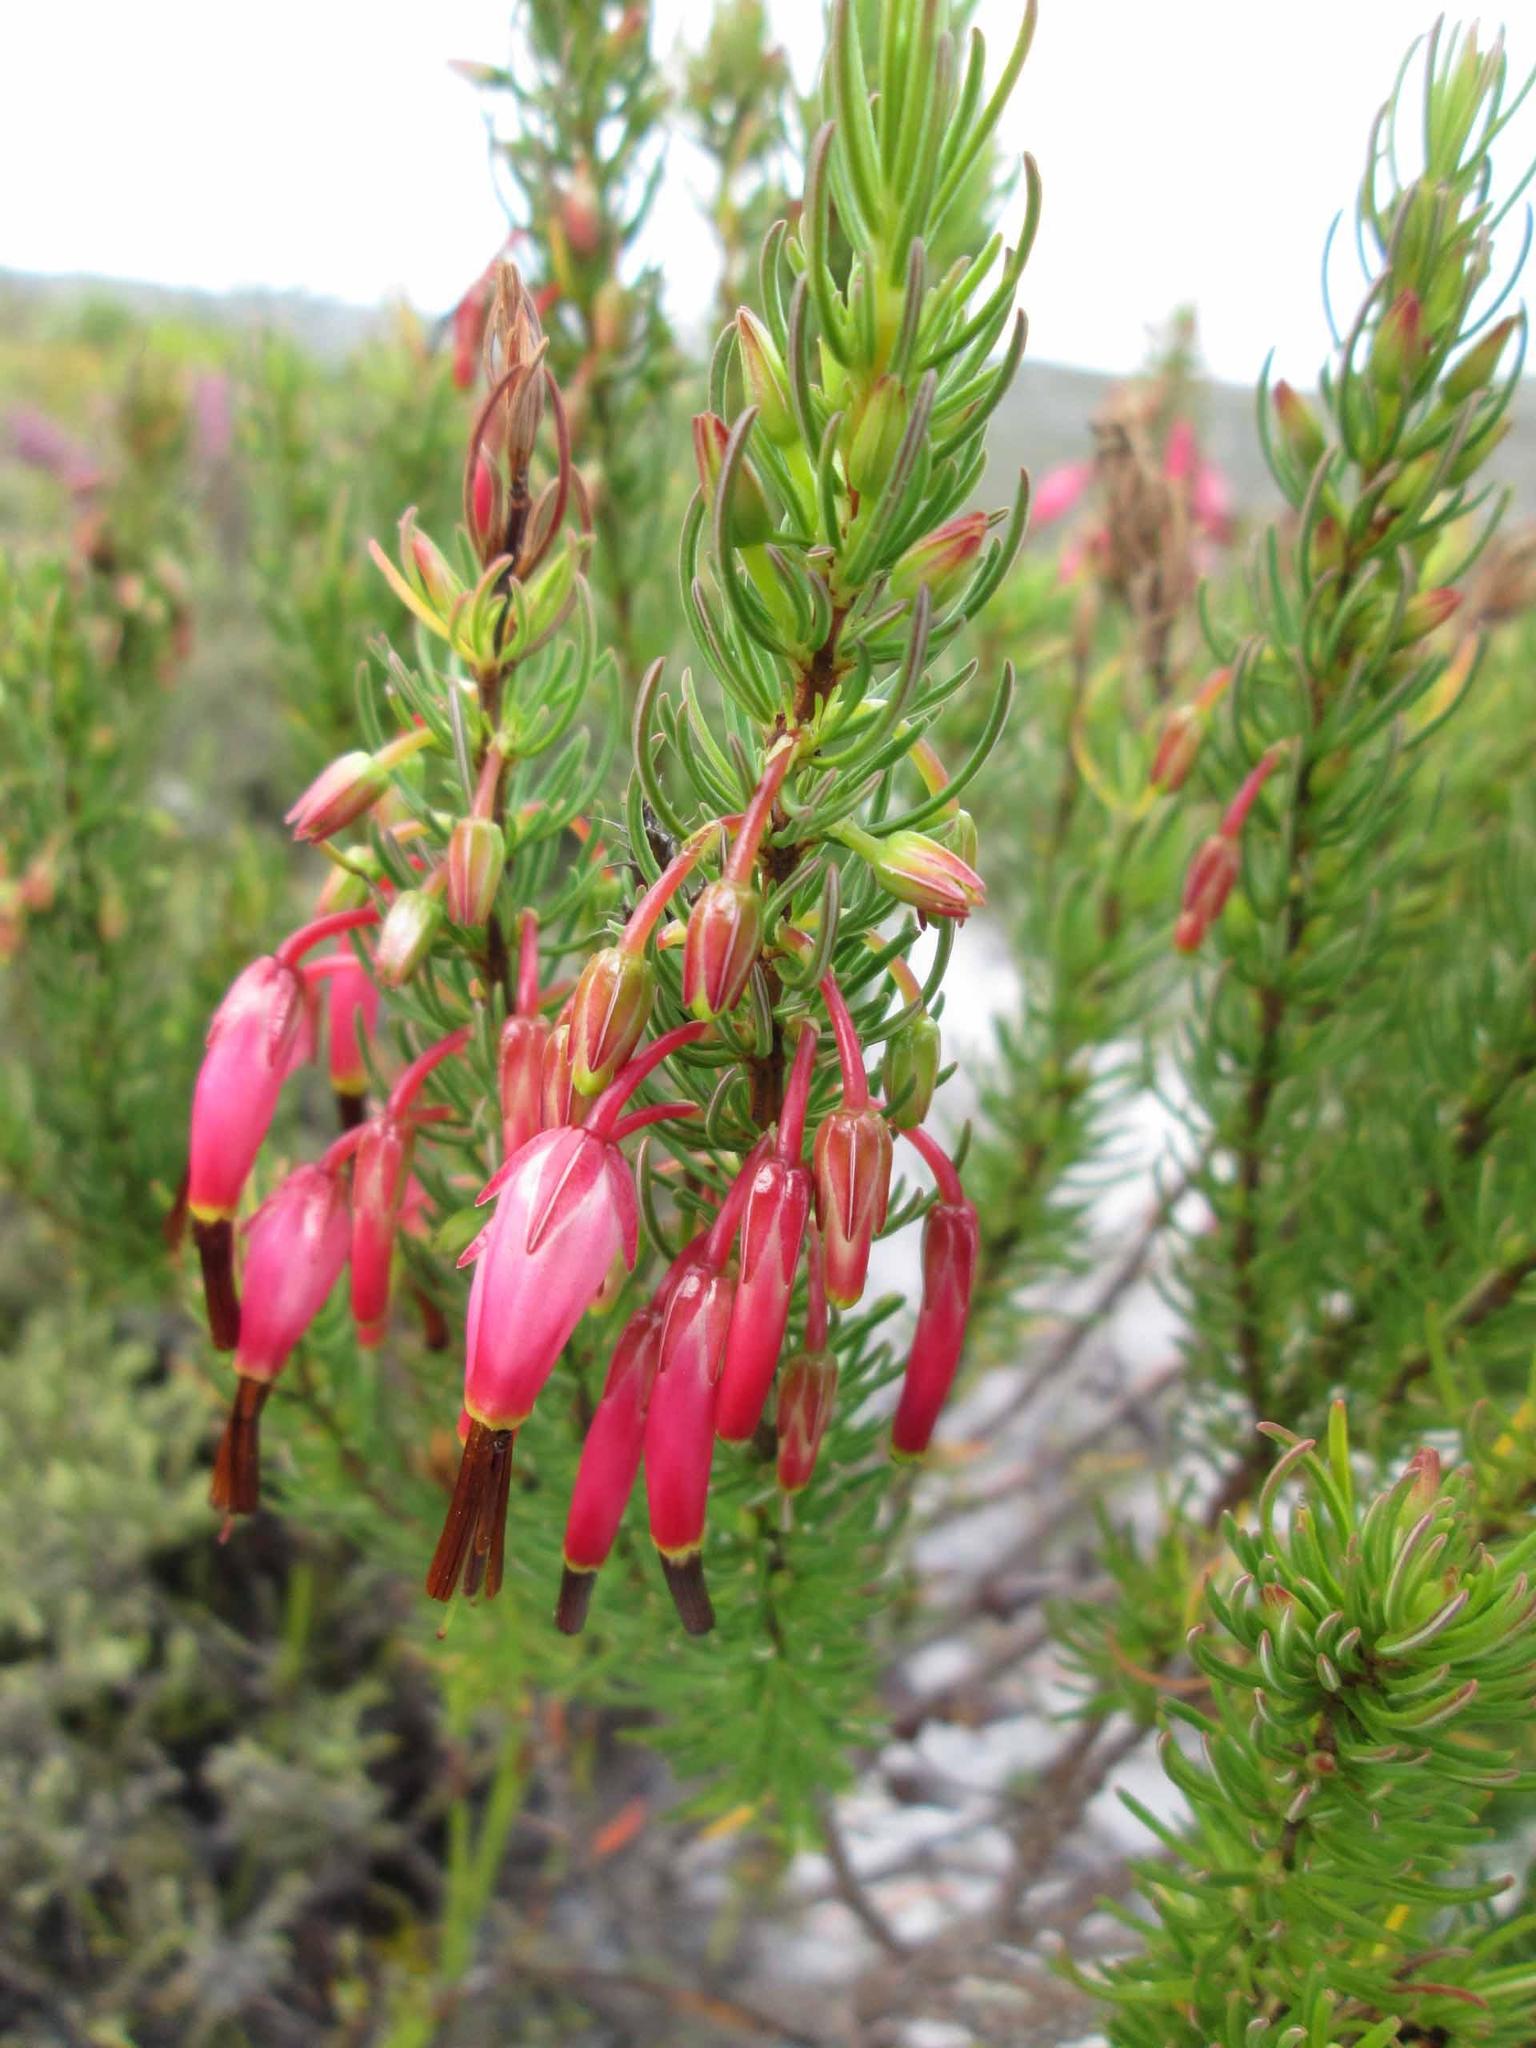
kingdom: Plantae
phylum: Tracheophyta
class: Magnoliopsida
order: Ericales
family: Ericaceae
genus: Erica
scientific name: Erica plukenetii
